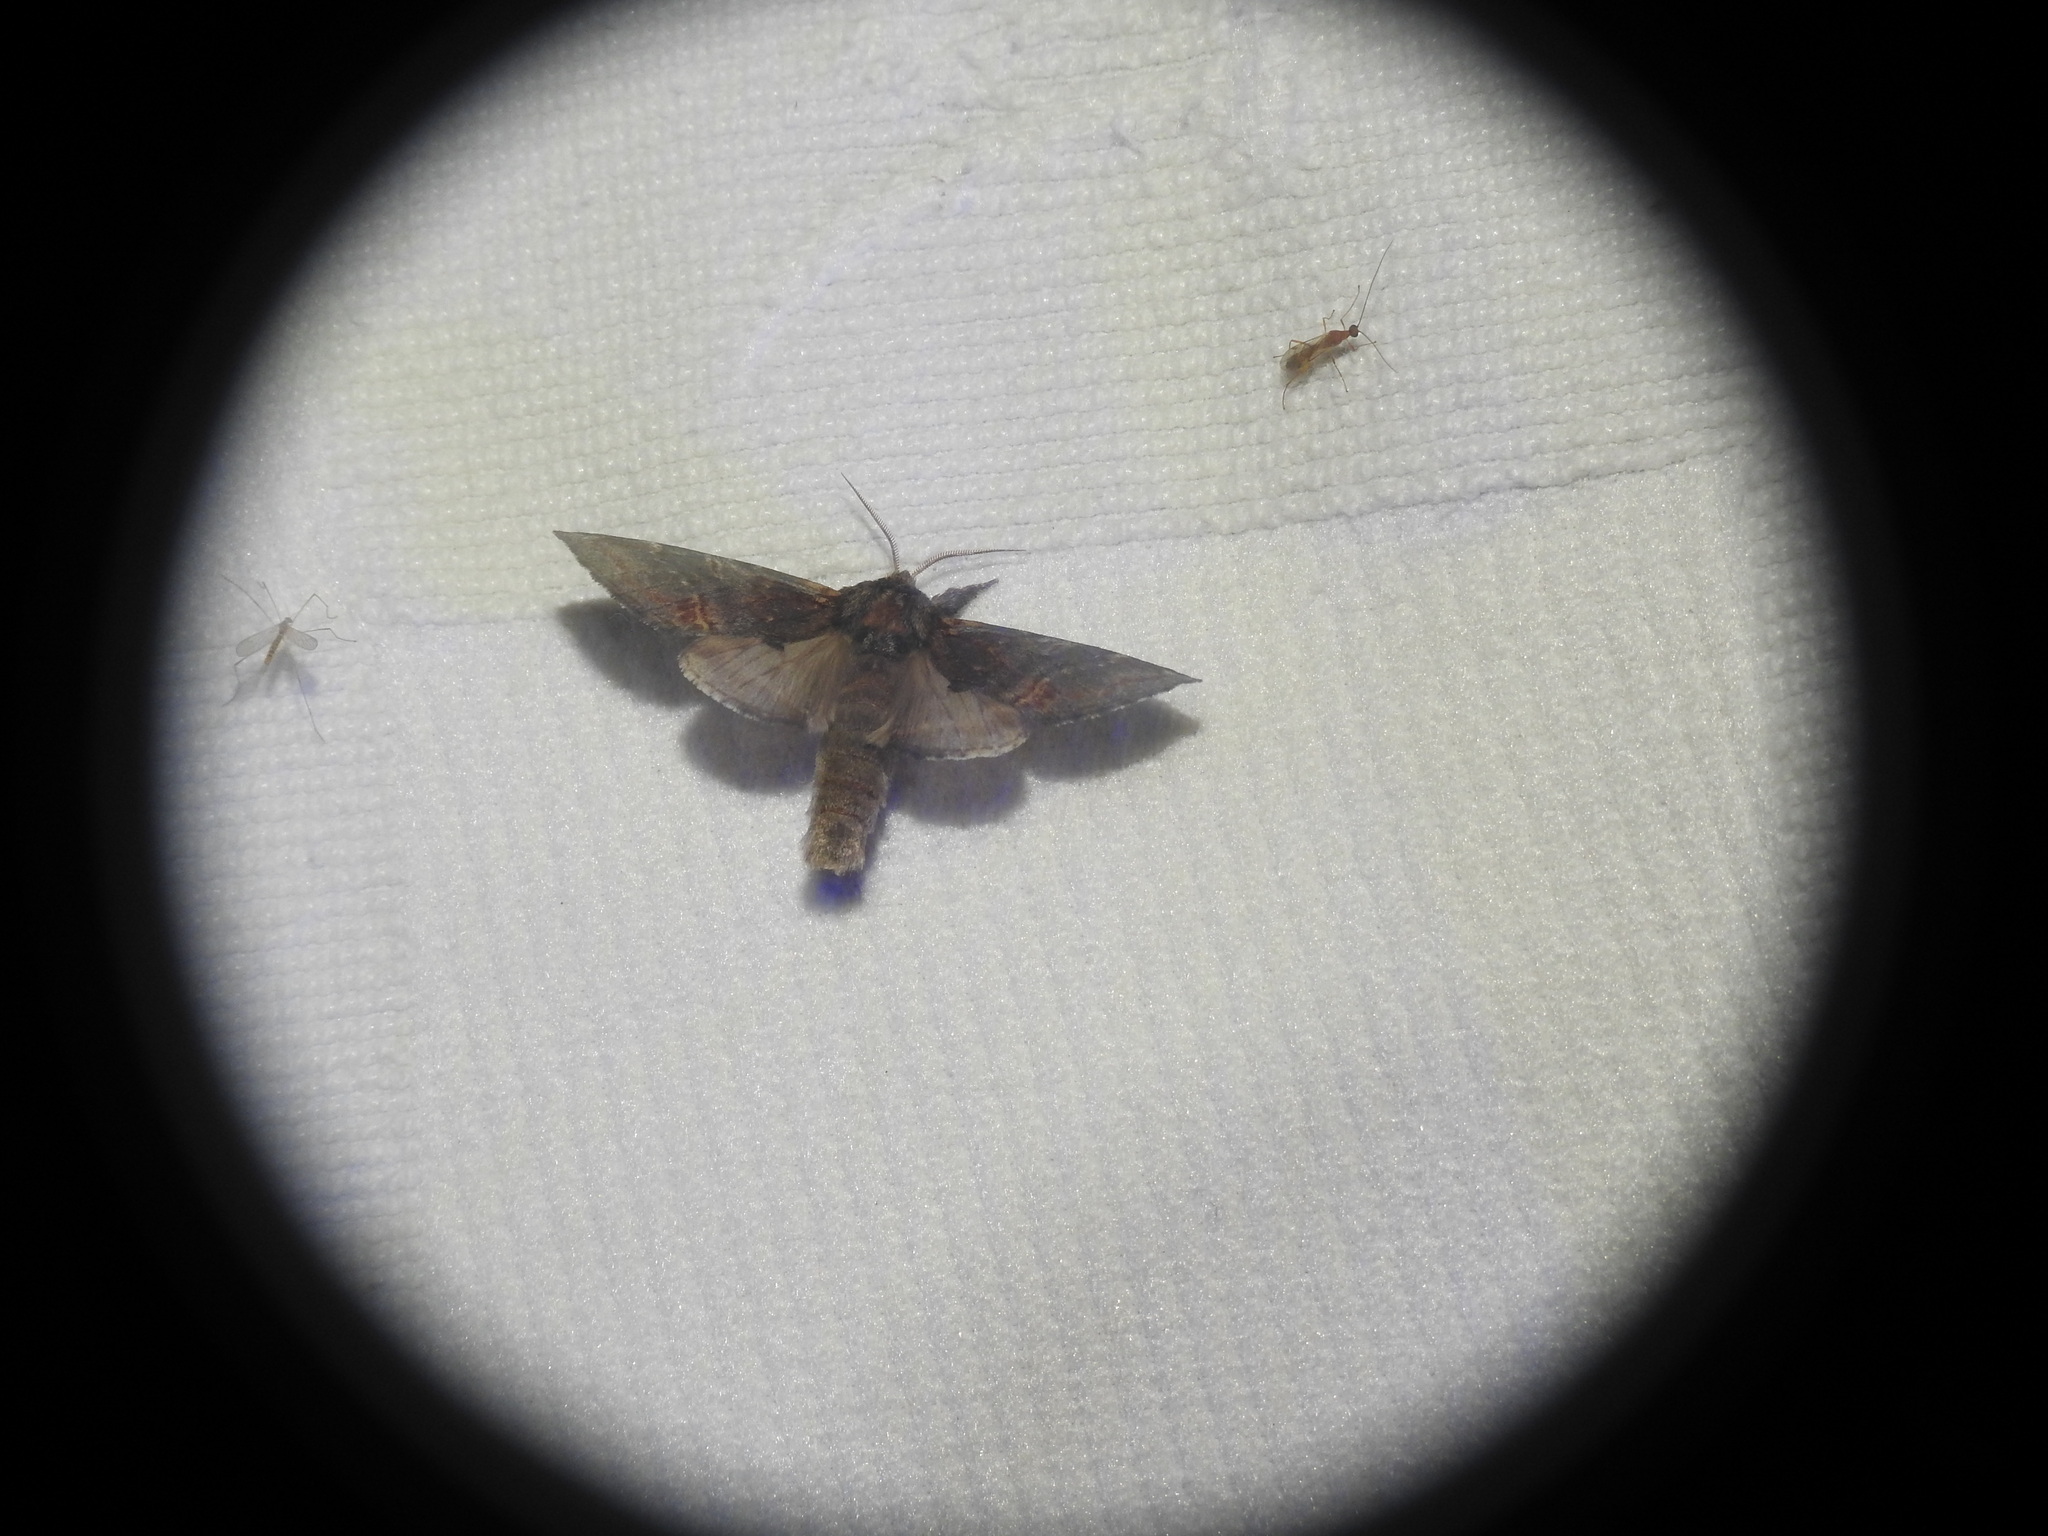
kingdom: Animalia
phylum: Arthropoda
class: Insecta
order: Lepidoptera
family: Notodontidae
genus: Notodonta
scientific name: Notodonta dromedarius
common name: Iron prominent
